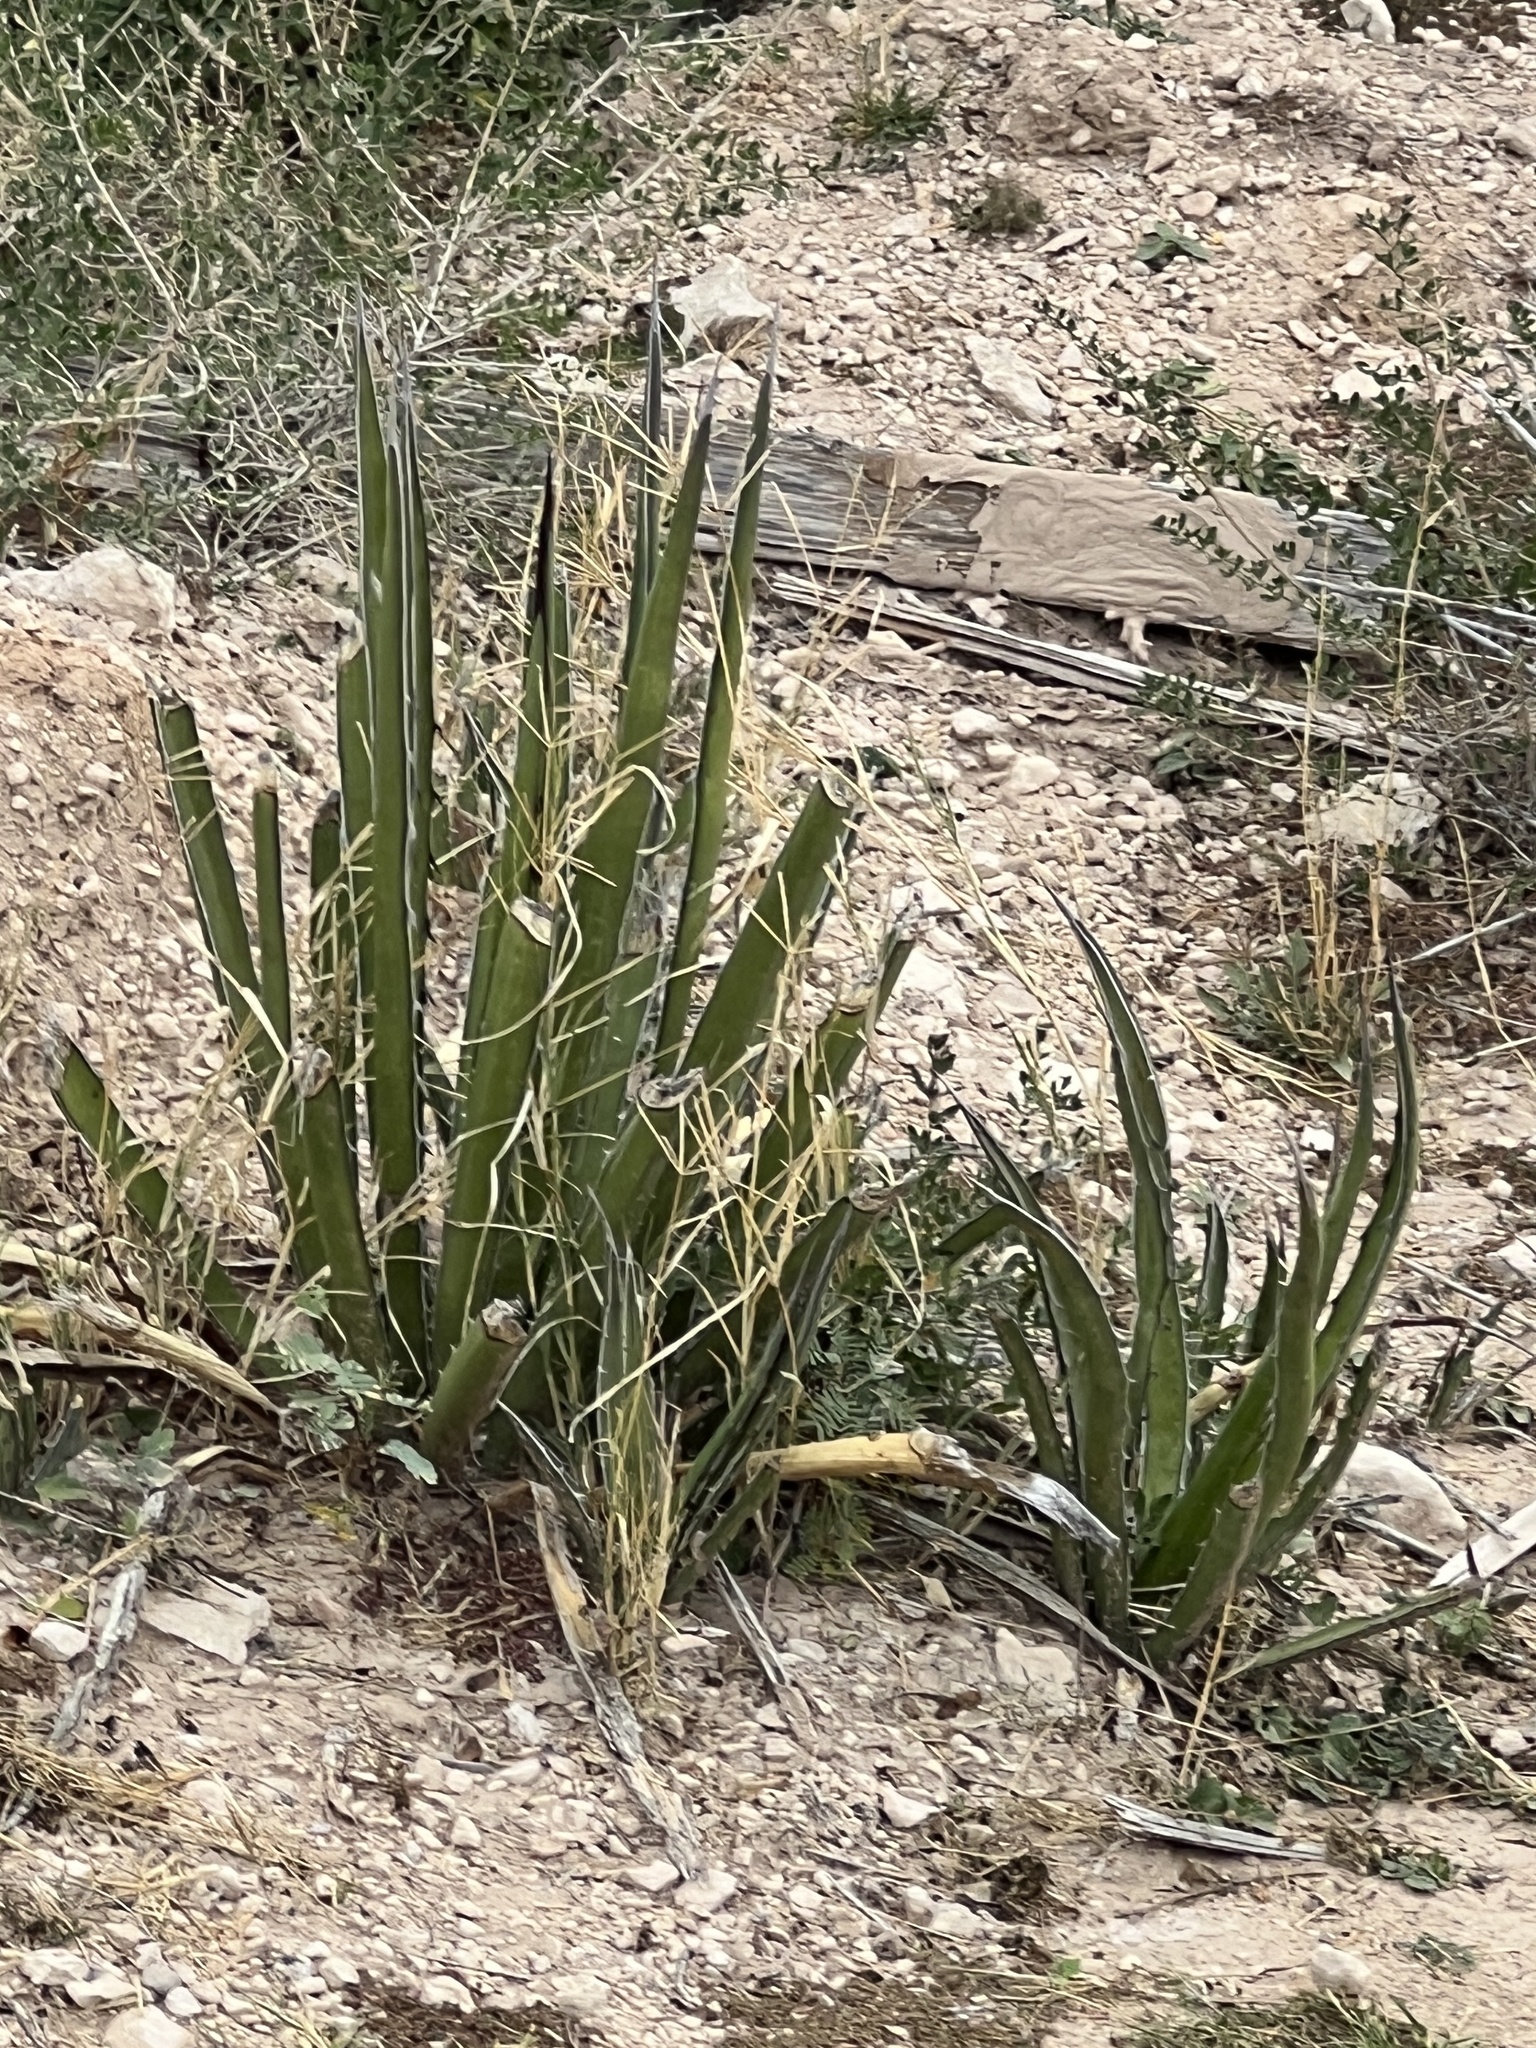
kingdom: Plantae
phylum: Tracheophyta
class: Liliopsida
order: Asparagales
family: Asparagaceae
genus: Agave
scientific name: Agave lechuguilla
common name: Lecheguilla agave
